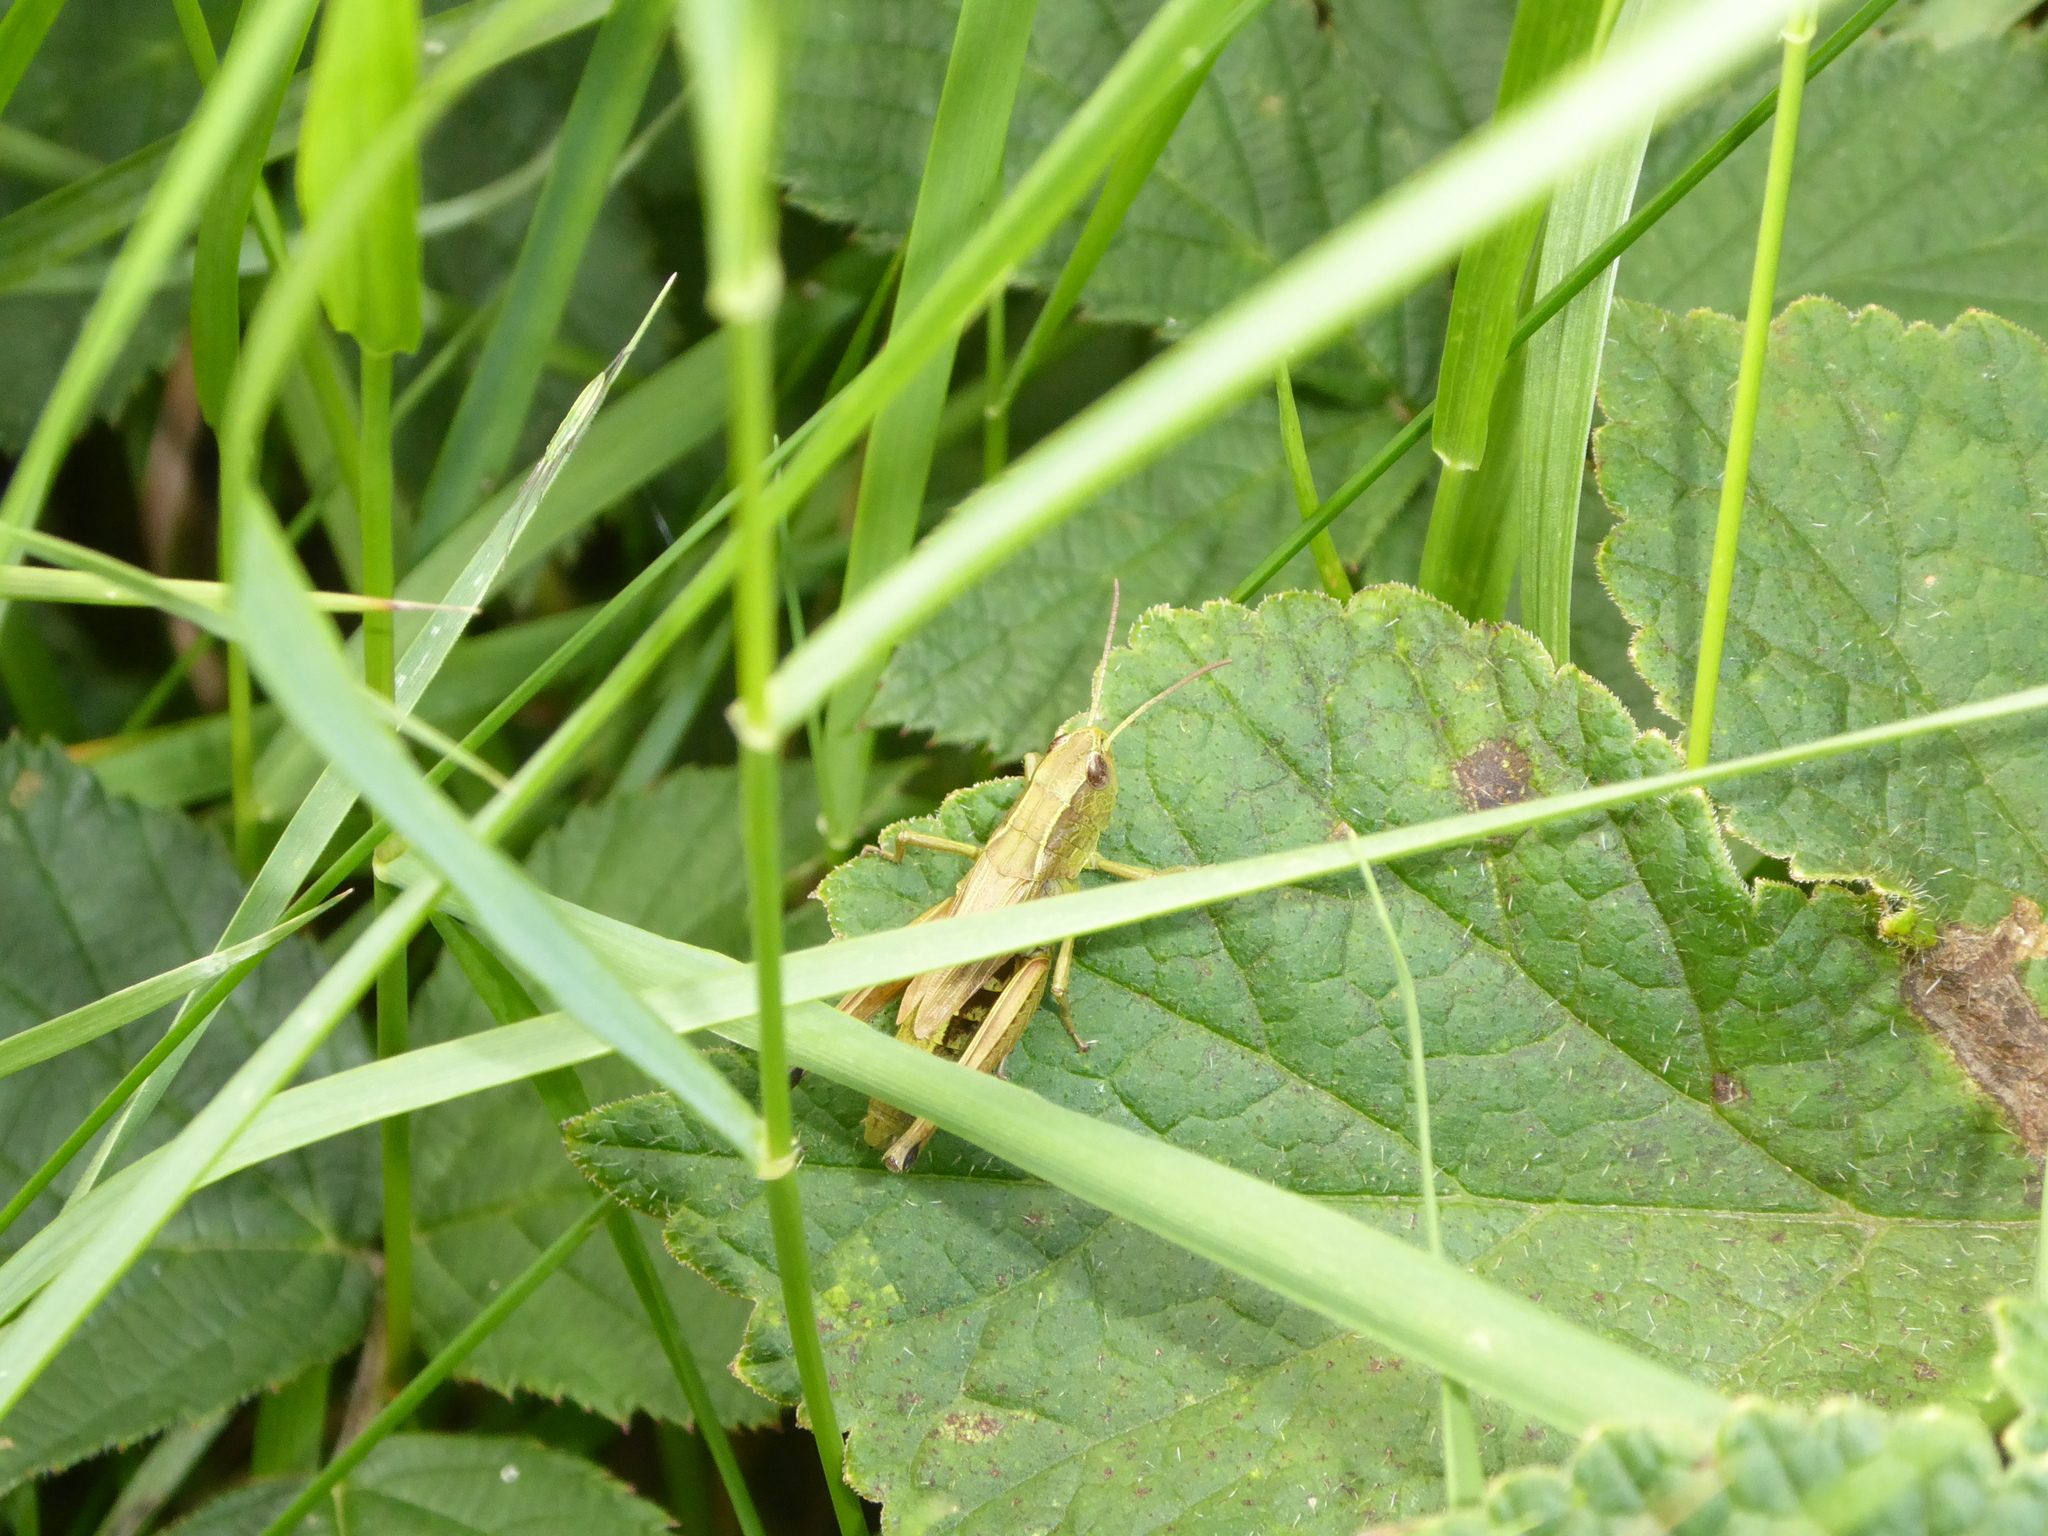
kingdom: Animalia
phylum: Arthropoda
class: Insecta
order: Orthoptera
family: Acrididae
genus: Pseudochorthippus
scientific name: Pseudochorthippus parallelus
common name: Meadow grasshopper
